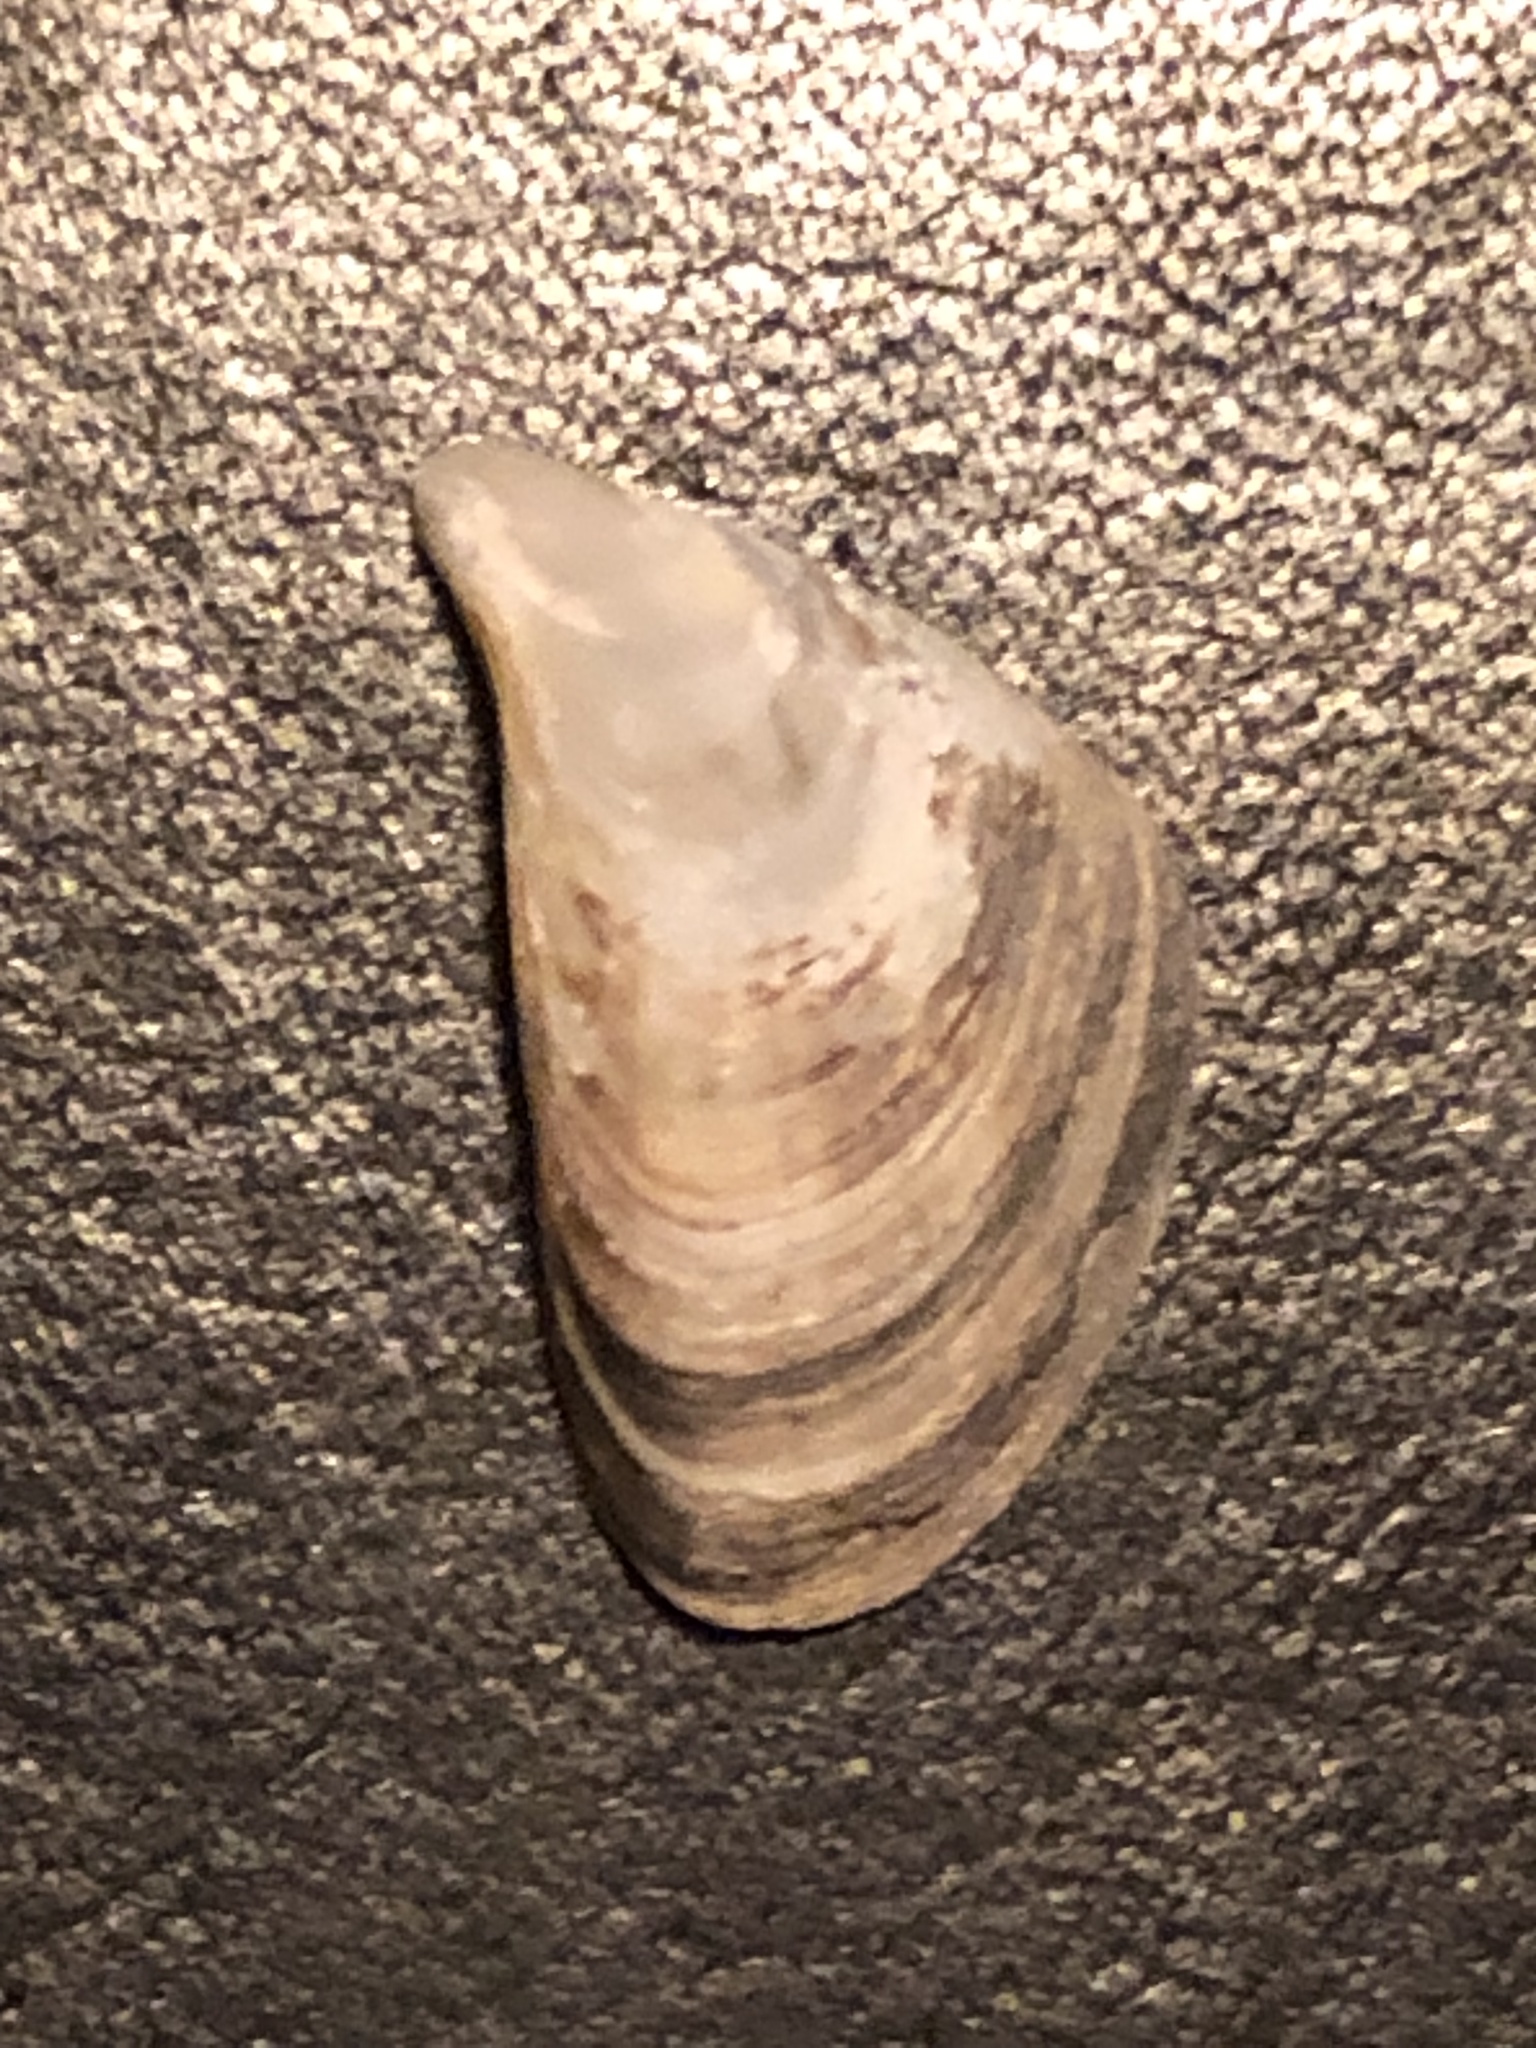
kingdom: Animalia
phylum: Mollusca
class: Bivalvia
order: Myida
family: Dreissenidae
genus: Dreissena
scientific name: Dreissena bugensis
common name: Quagga mussel
